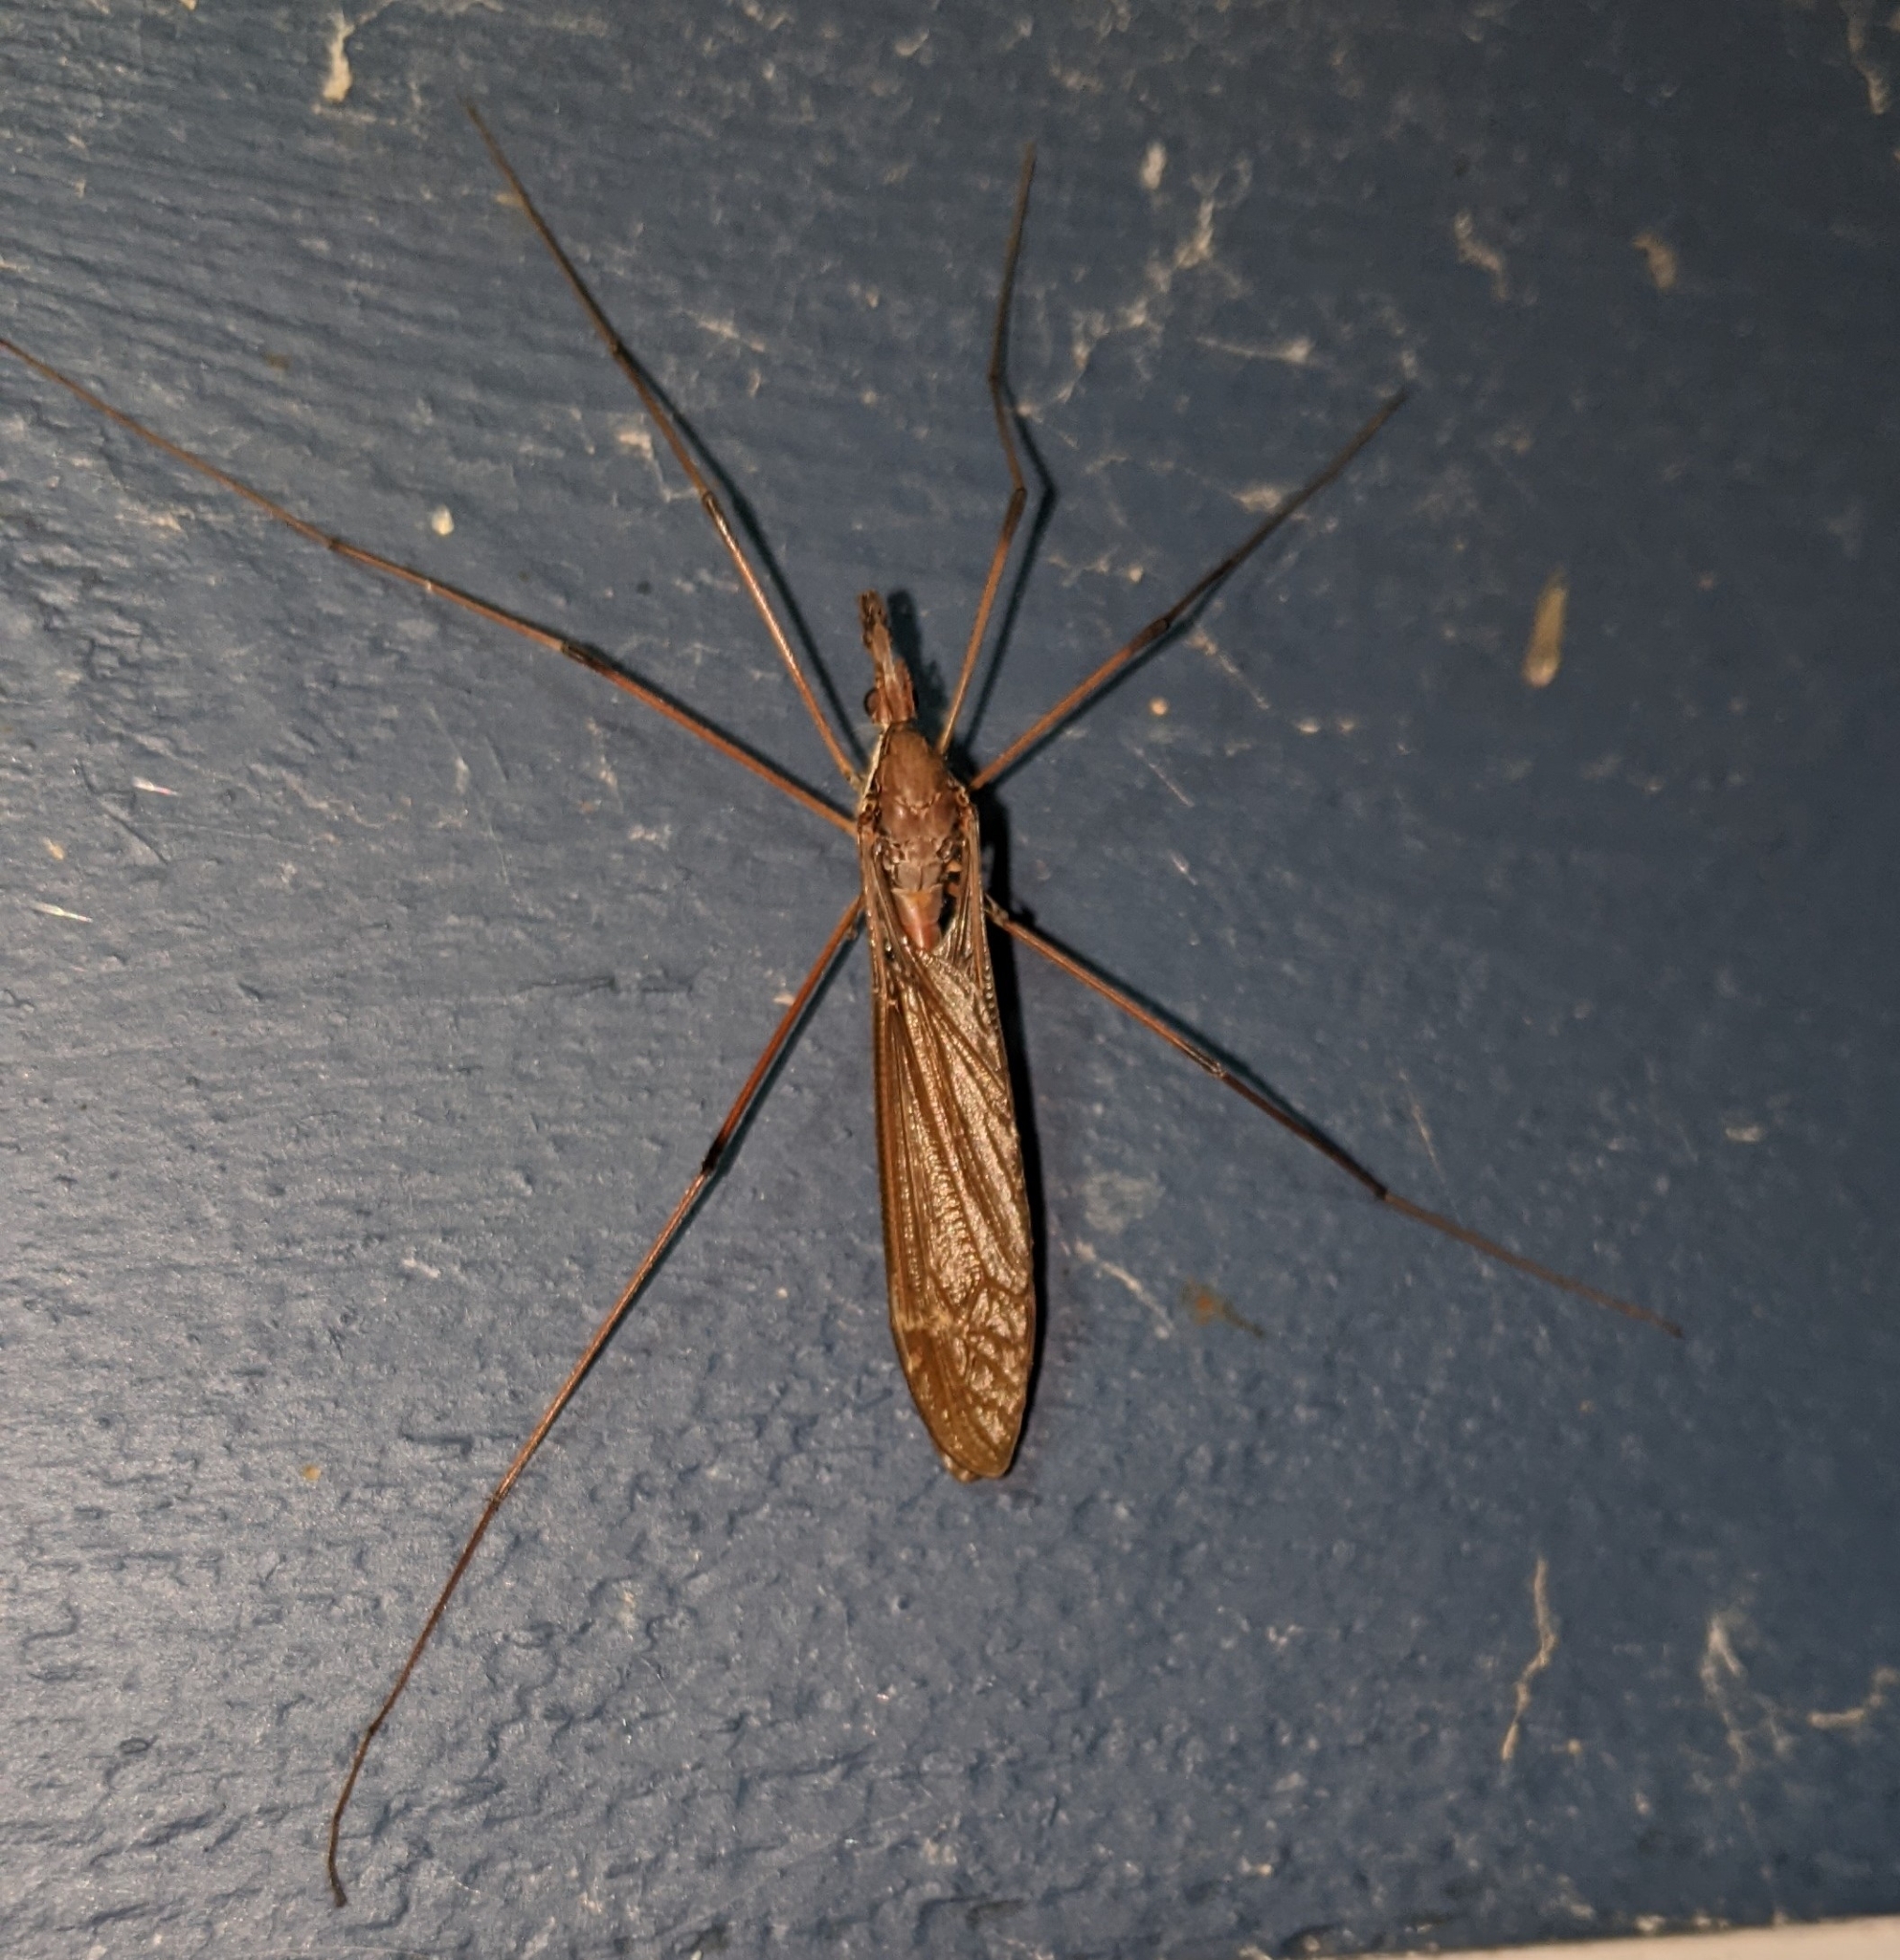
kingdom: Animalia
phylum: Arthropoda
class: Insecta
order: Diptera
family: Tipulidae
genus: Holorusia
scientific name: Holorusia hespera
